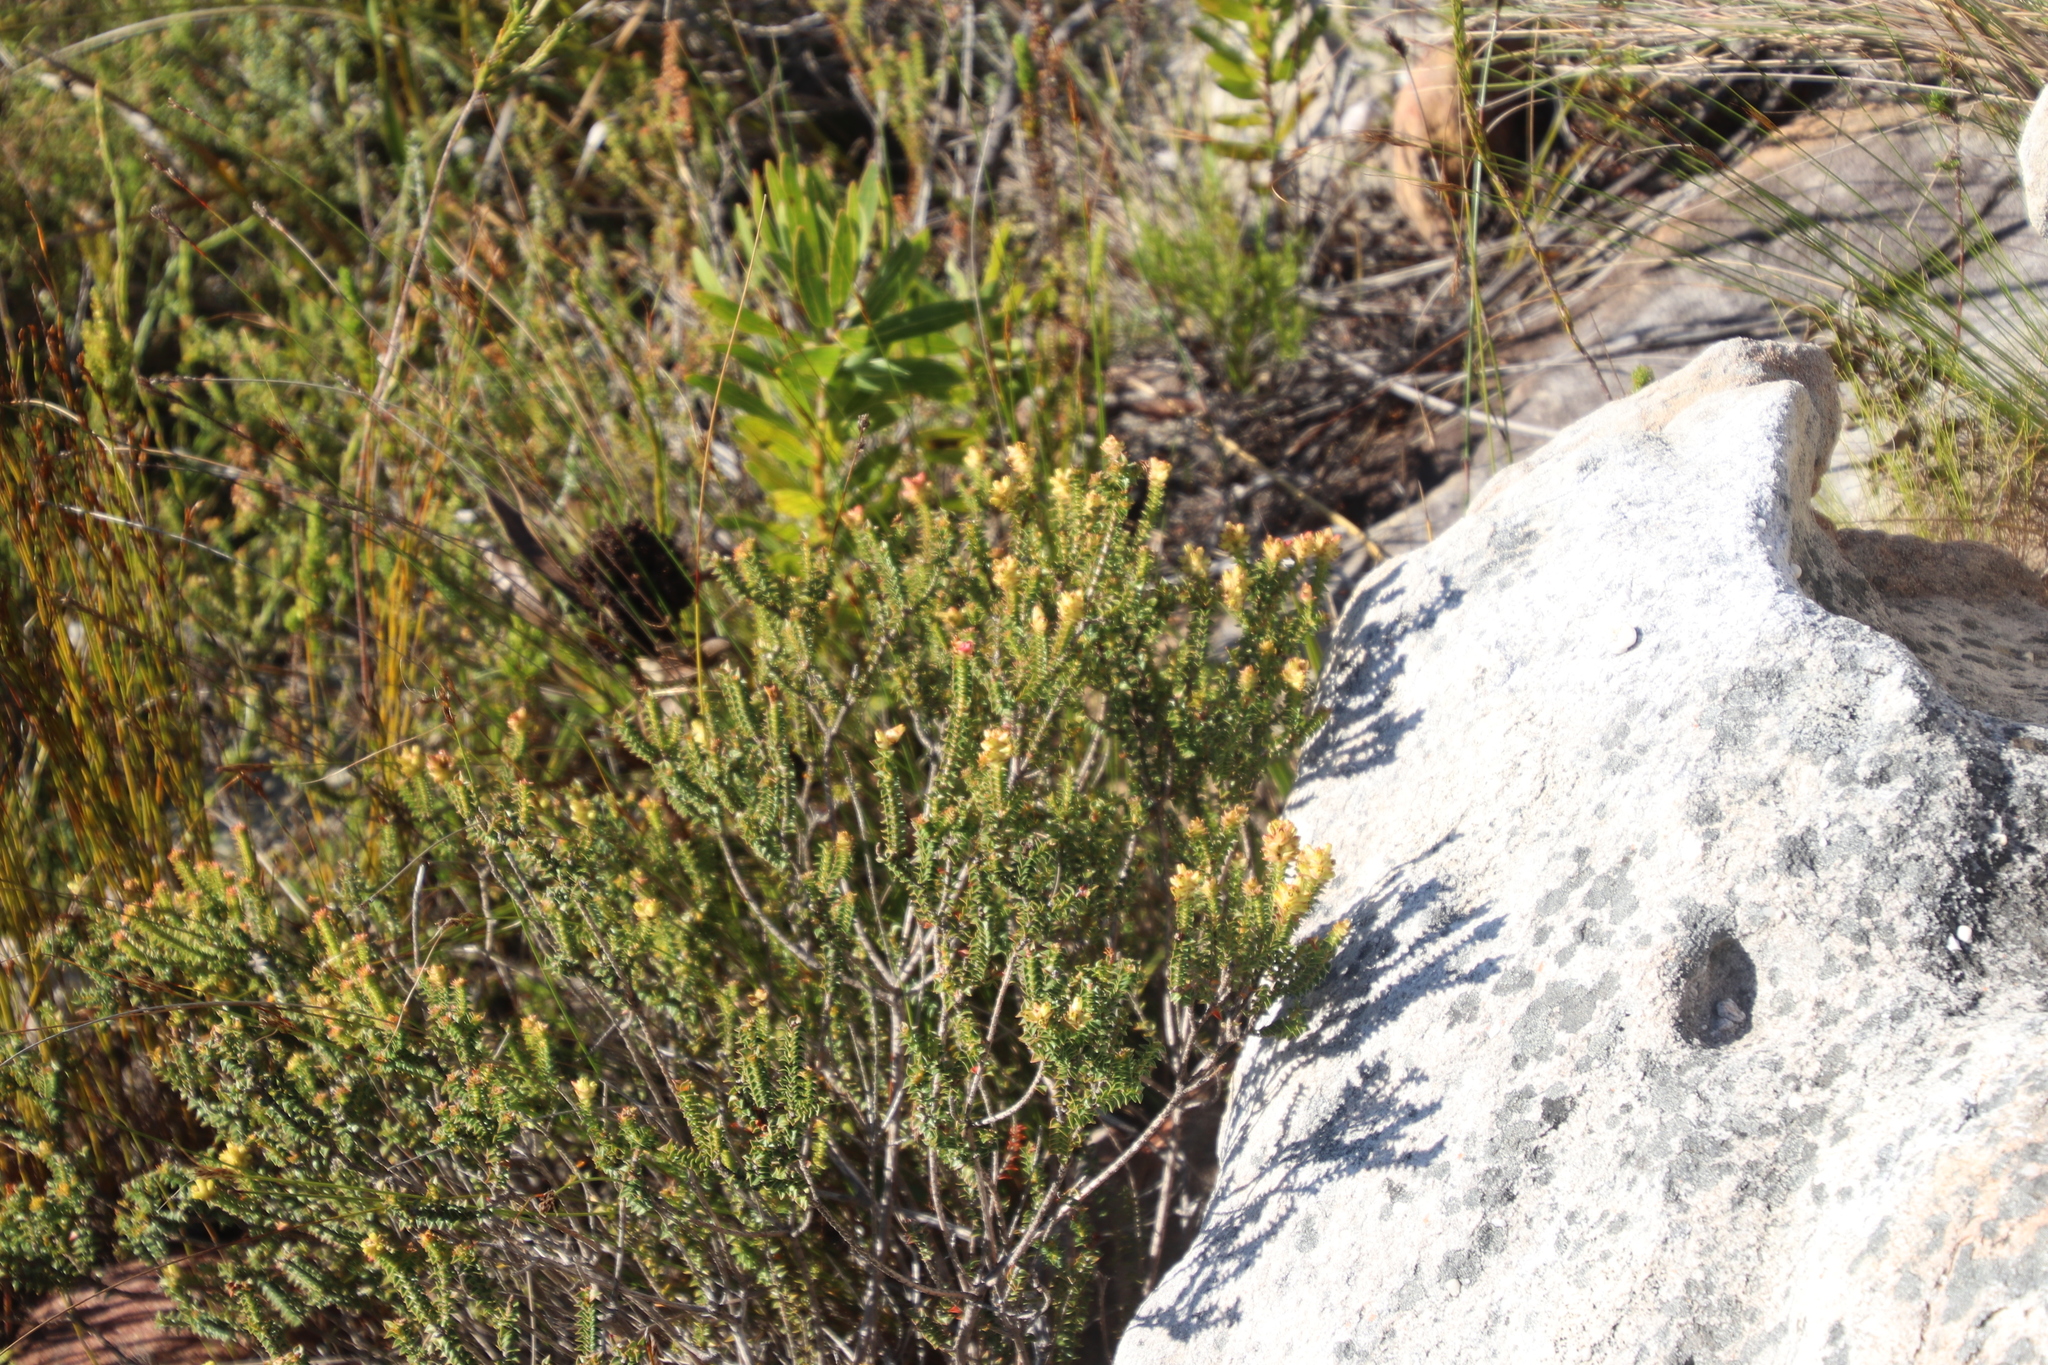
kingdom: Plantae
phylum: Tracheophyta
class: Magnoliopsida
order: Myrtales
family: Penaeaceae
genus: Penaea
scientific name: Penaea mucronata
